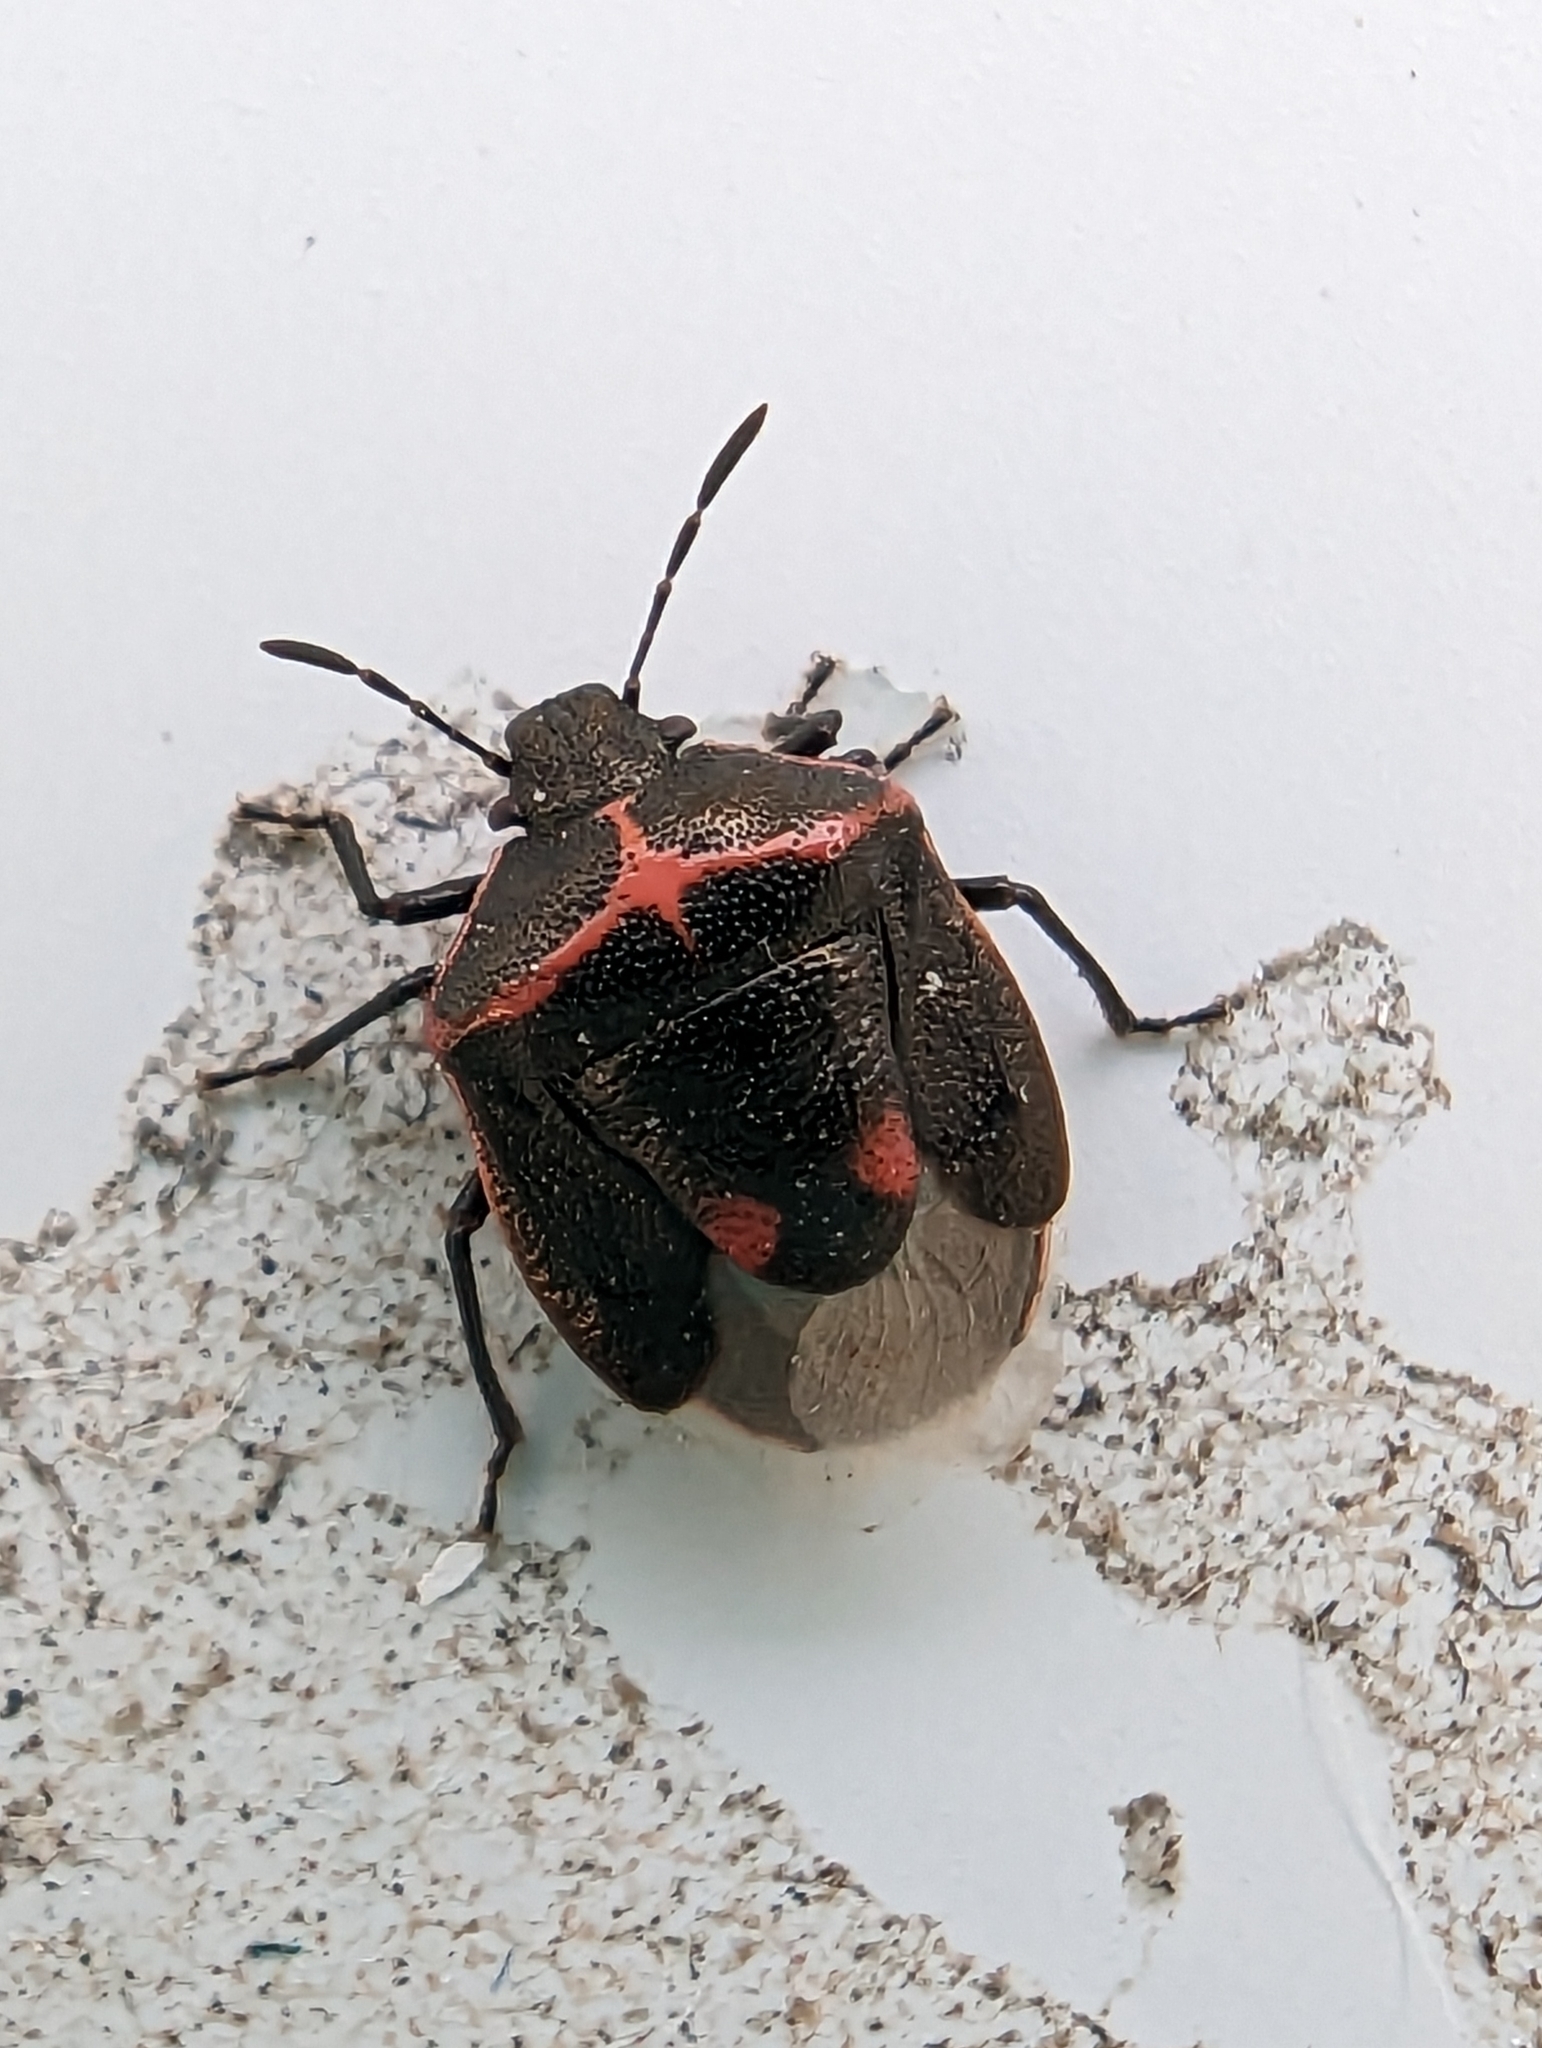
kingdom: Animalia
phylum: Arthropoda
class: Insecta
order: Hemiptera
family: Pentatomidae
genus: Cosmopepla
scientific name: Cosmopepla lintneriana
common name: Twice-stabbed stink bug
